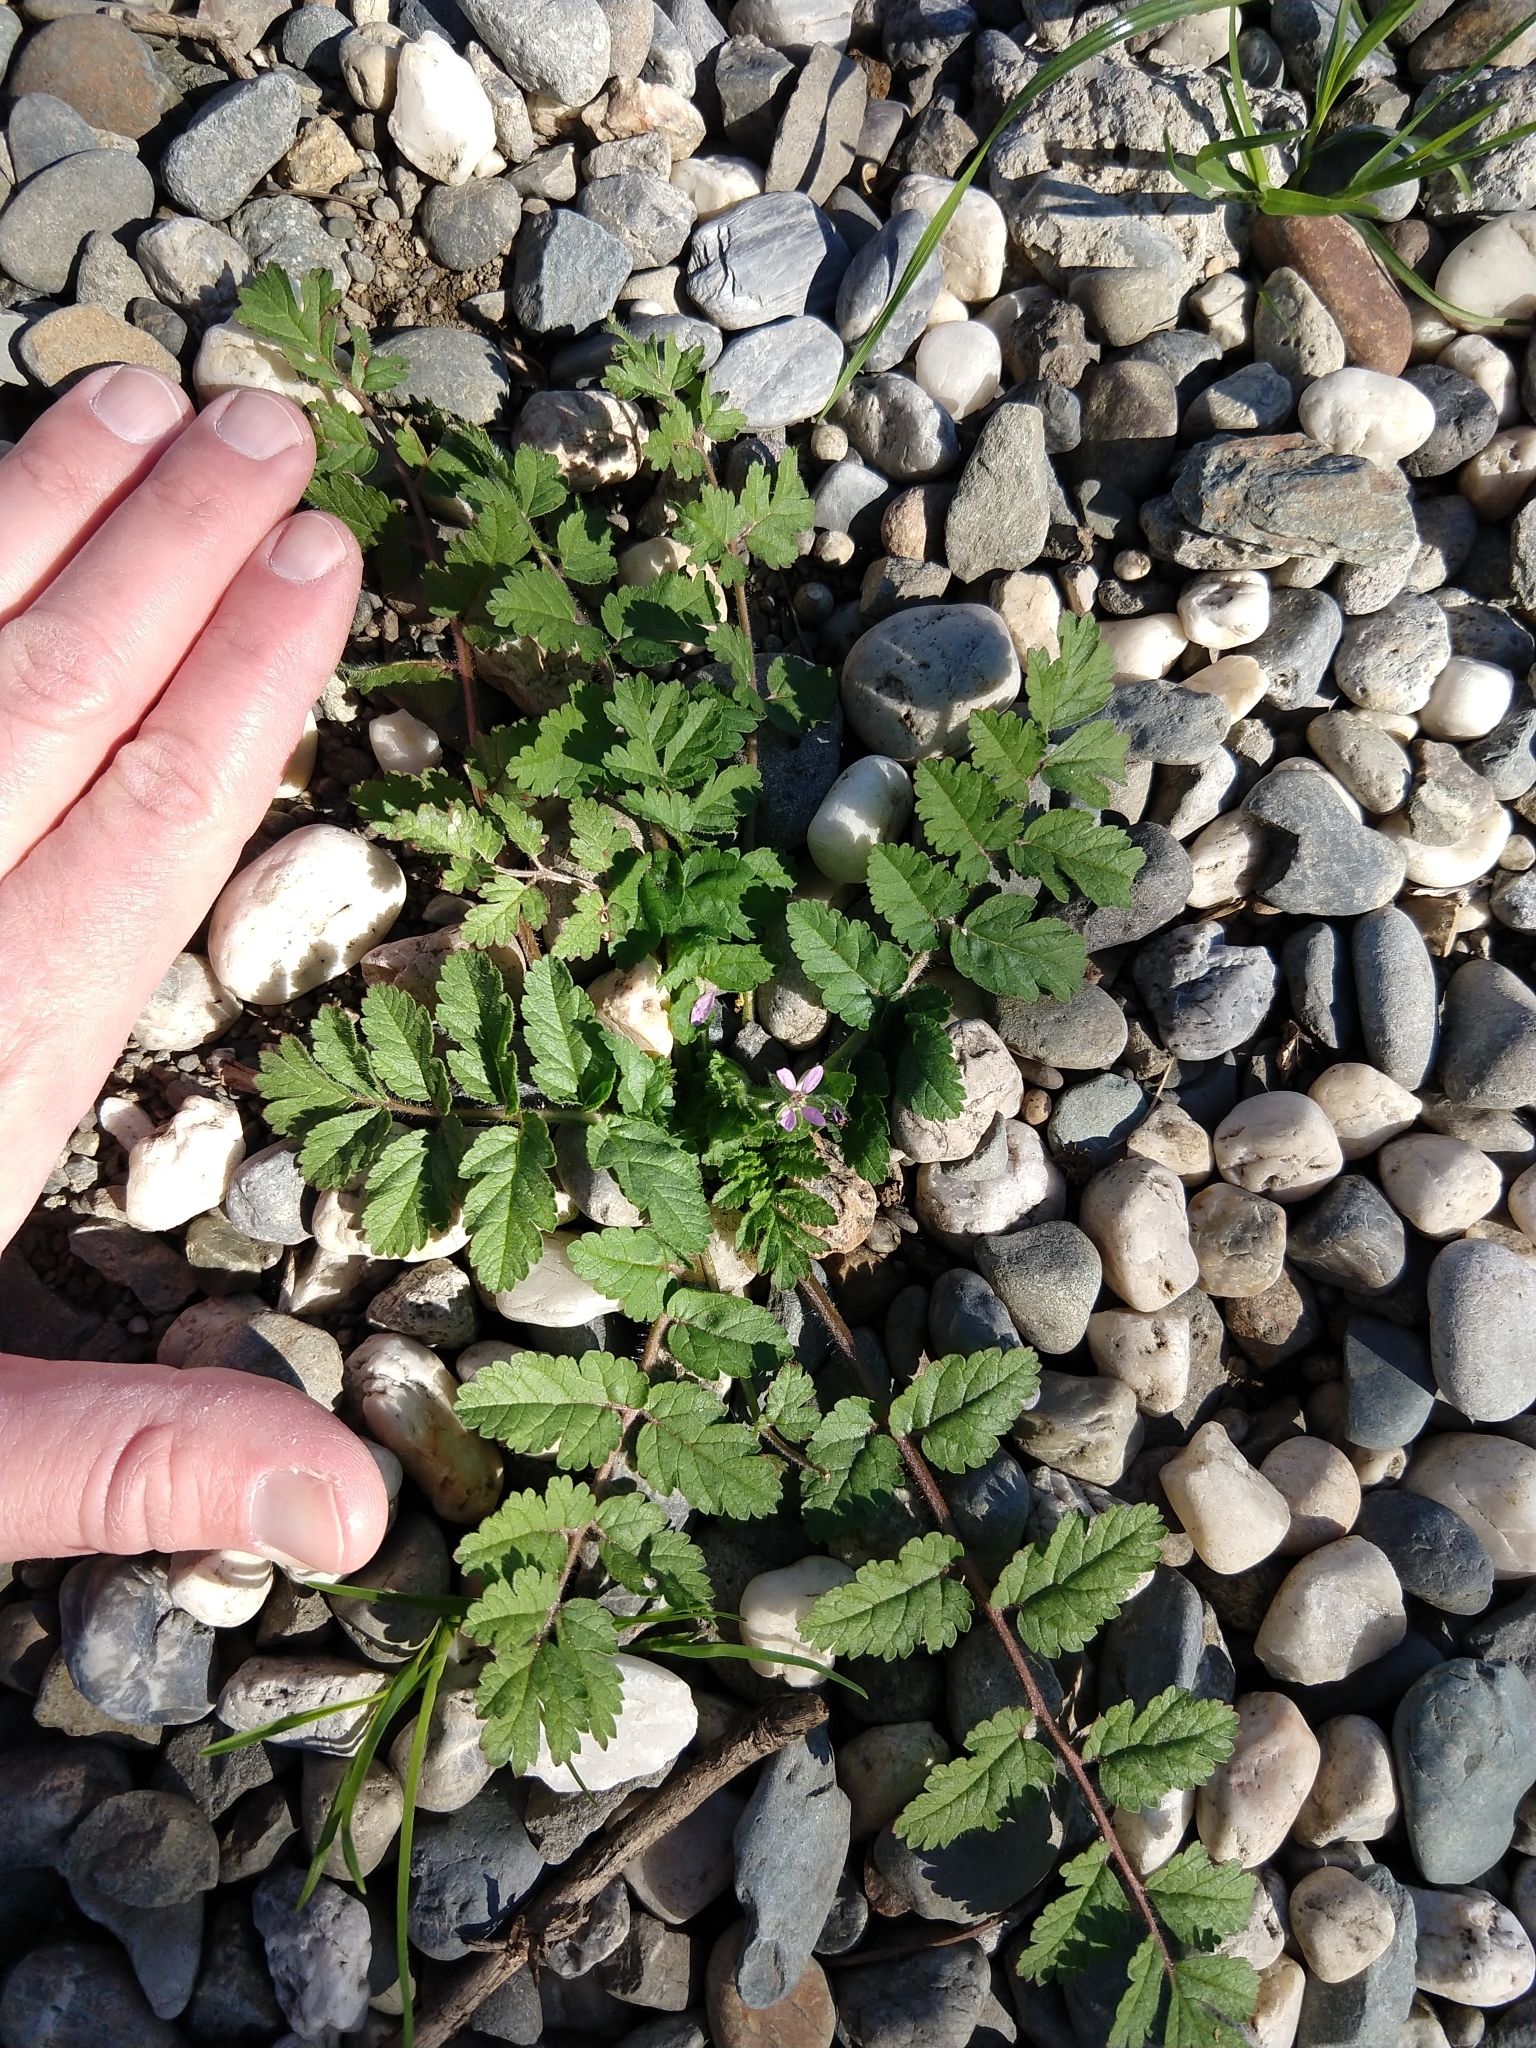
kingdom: Plantae
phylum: Tracheophyta
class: Magnoliopsida
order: Geraniales
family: Geraniaceae
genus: Erodium
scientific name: Erodium moschatum
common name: Musk stork's-bill
